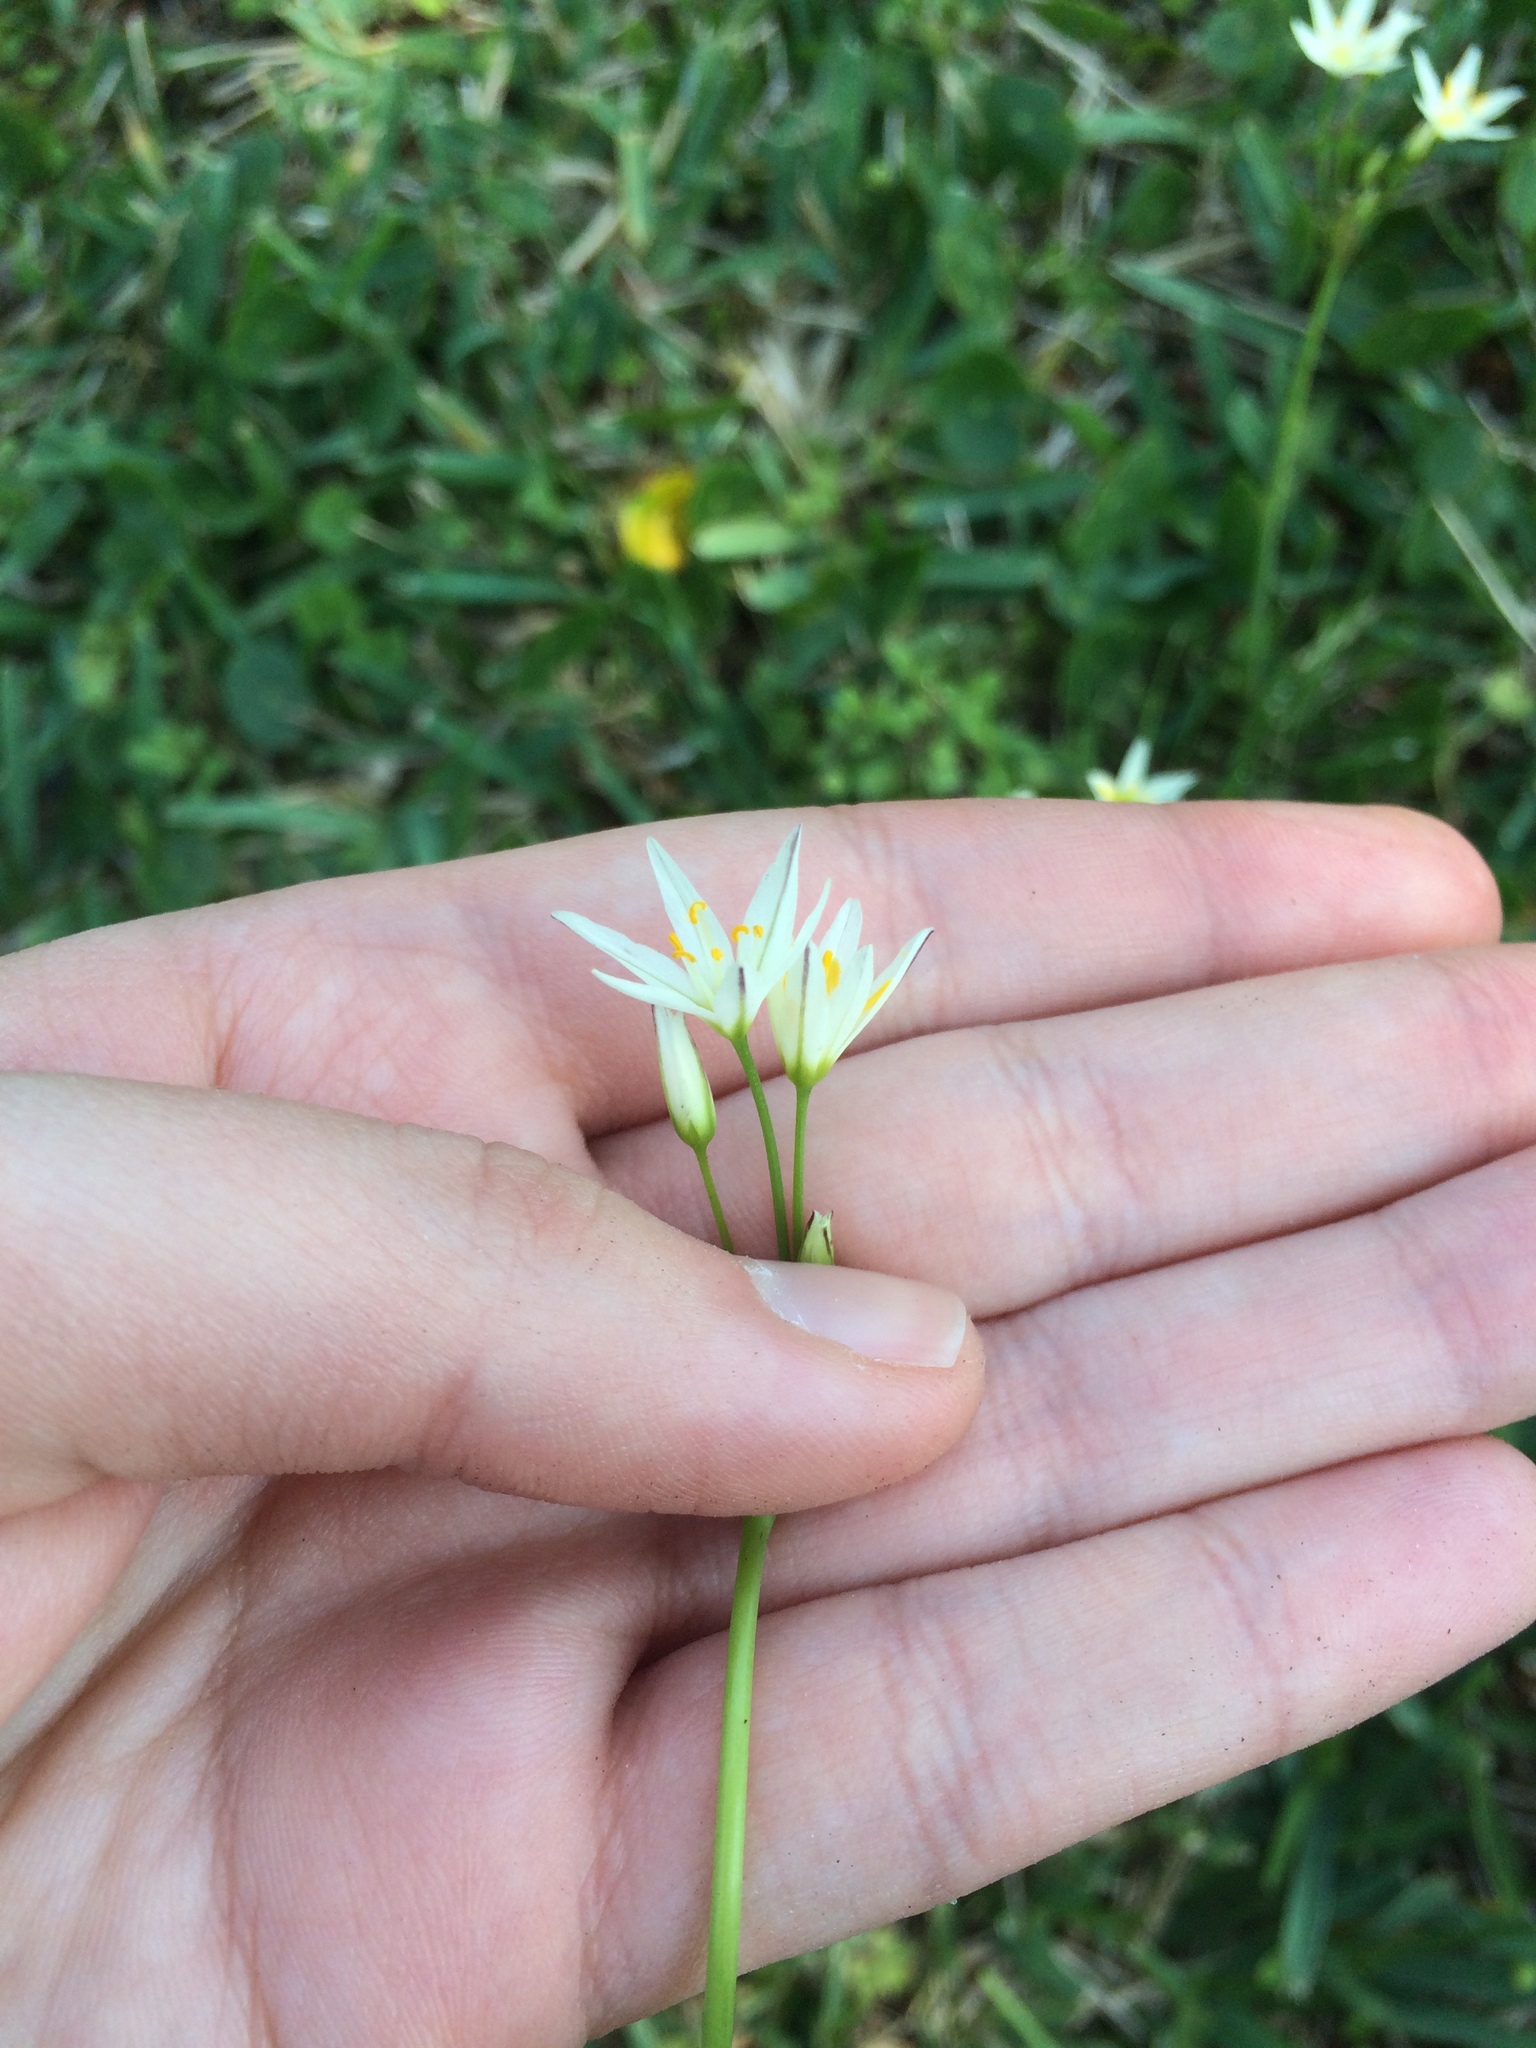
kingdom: Plantae
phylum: Tracheophyta
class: Liliopsida
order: Asparagales
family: Amaryllidaceae
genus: Nothoscordum
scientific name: Nothoscordum bivalve
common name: Crow-poison
